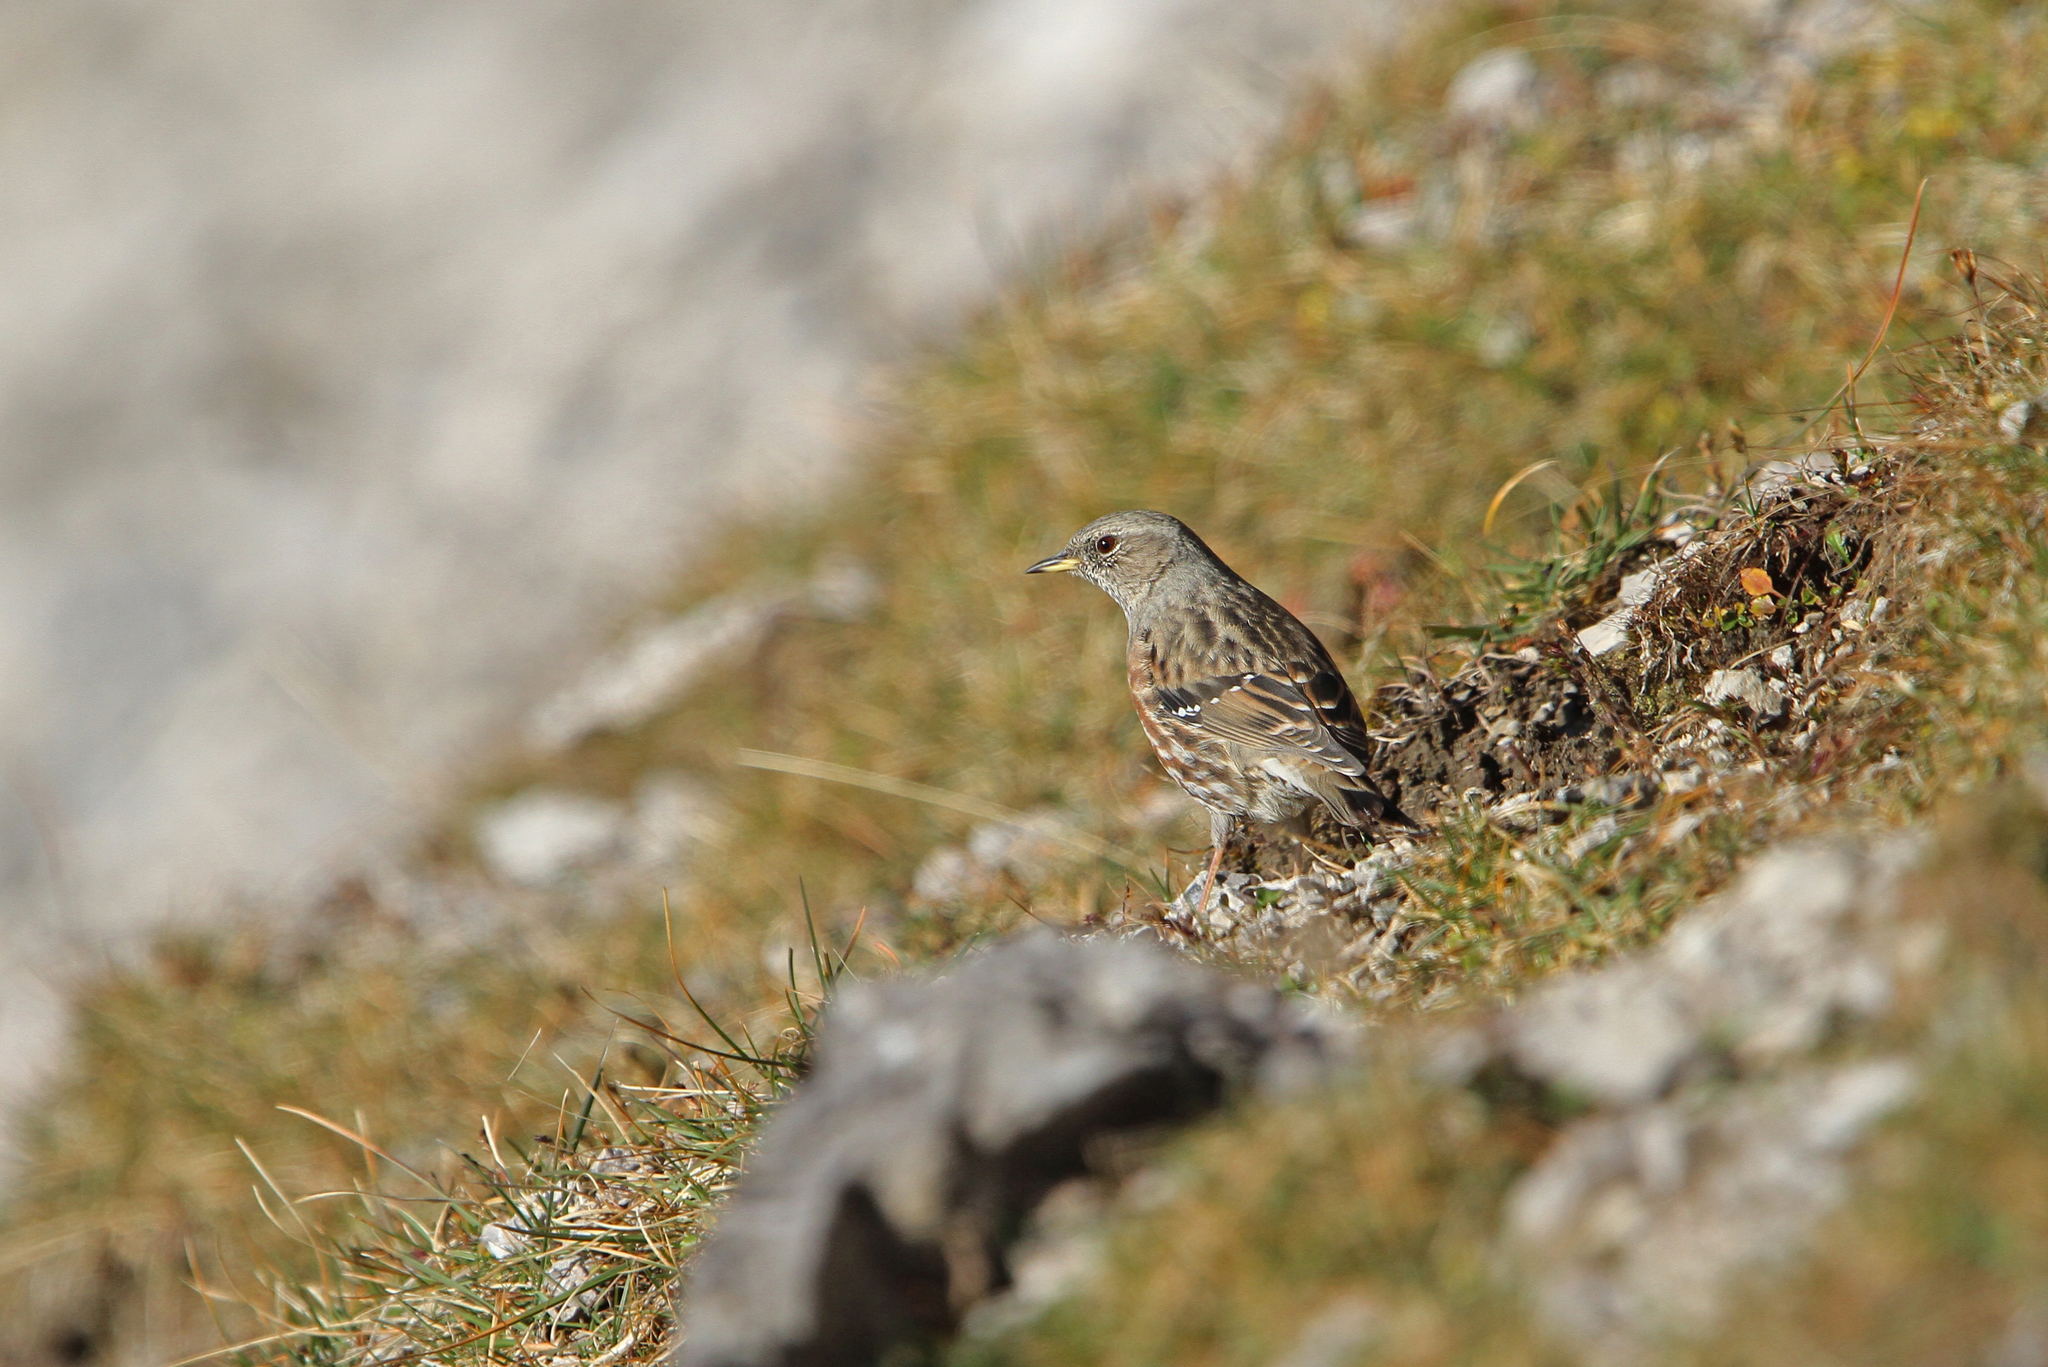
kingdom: Animalia
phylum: Chordata
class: Aves
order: Passeriformes
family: Prunellidae
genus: Prunella
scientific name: Prunella collaris
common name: Alpine accentor
